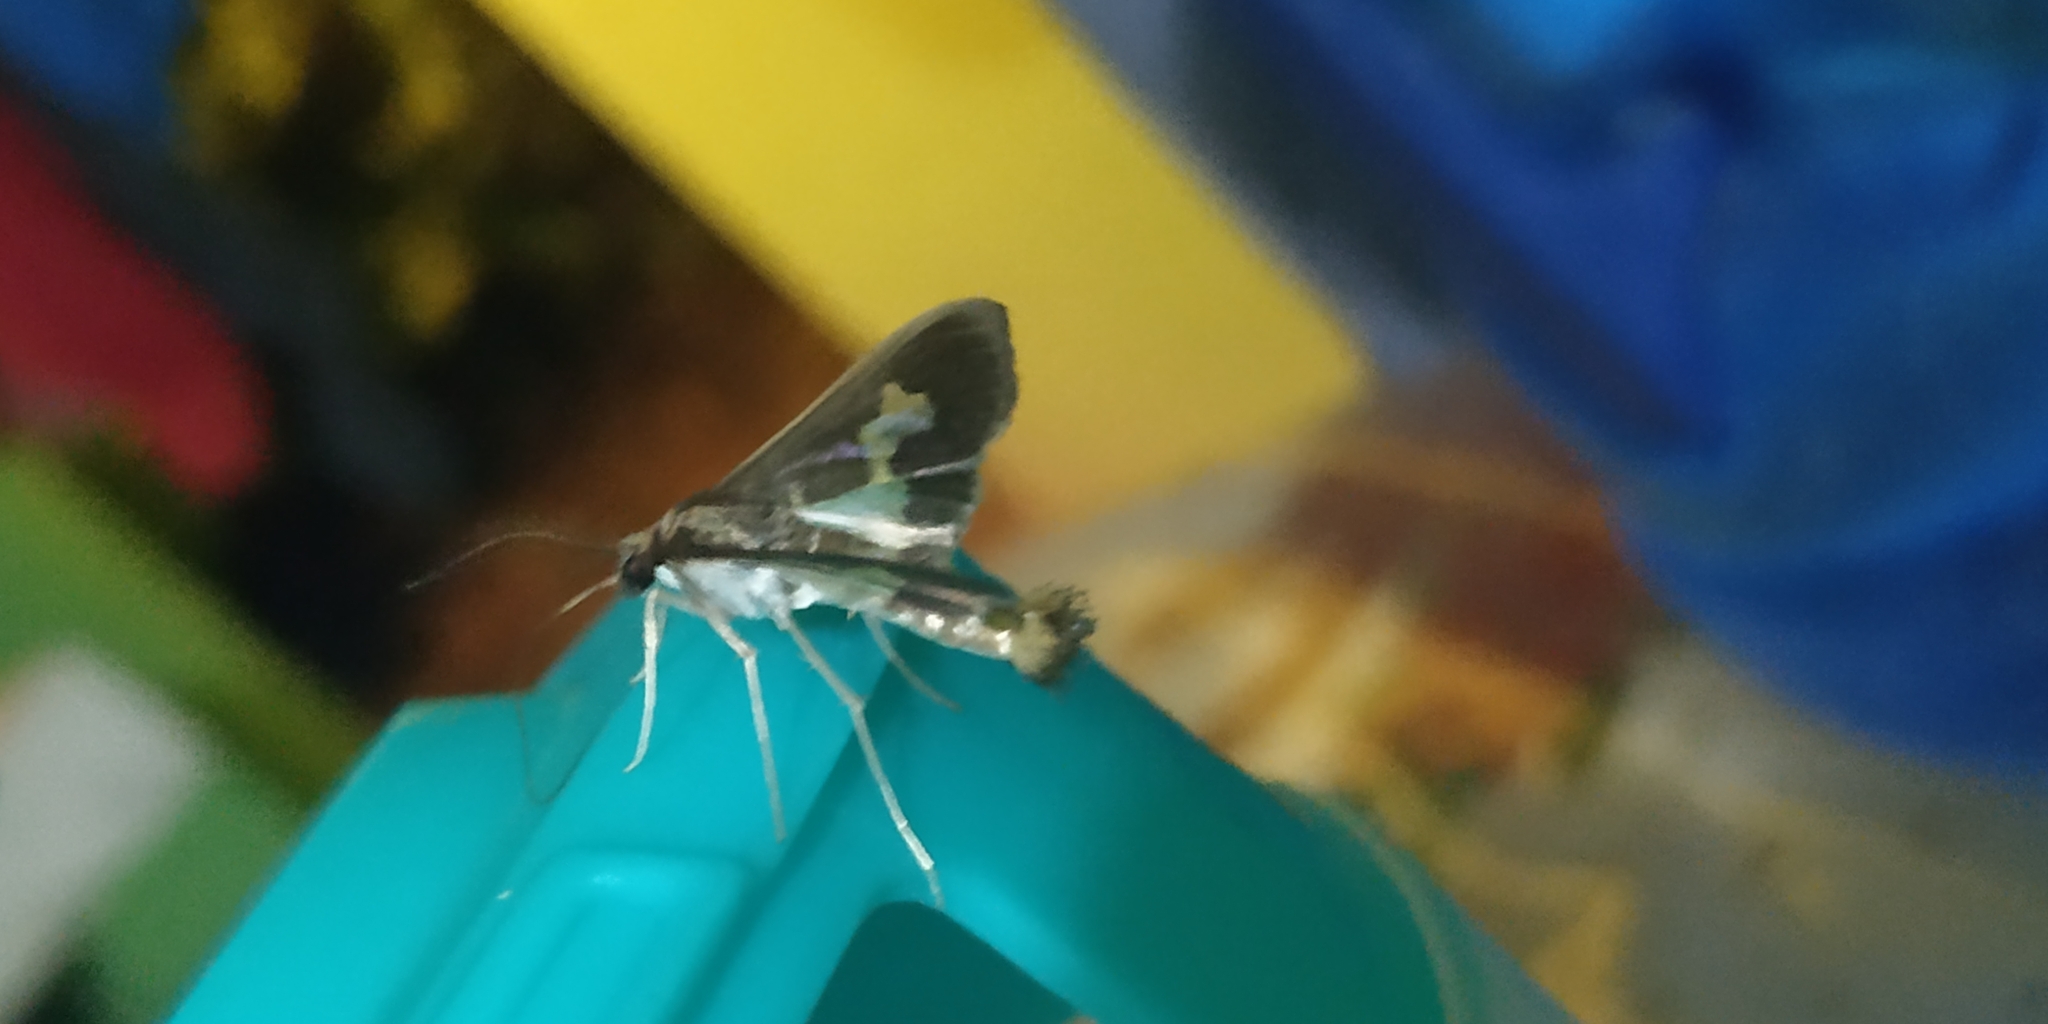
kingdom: Animalia
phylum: Arthropoda
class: Insecta
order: Lepidoptera
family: Crambidae
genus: Cryptographis
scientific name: Cryptographis nitidalis
